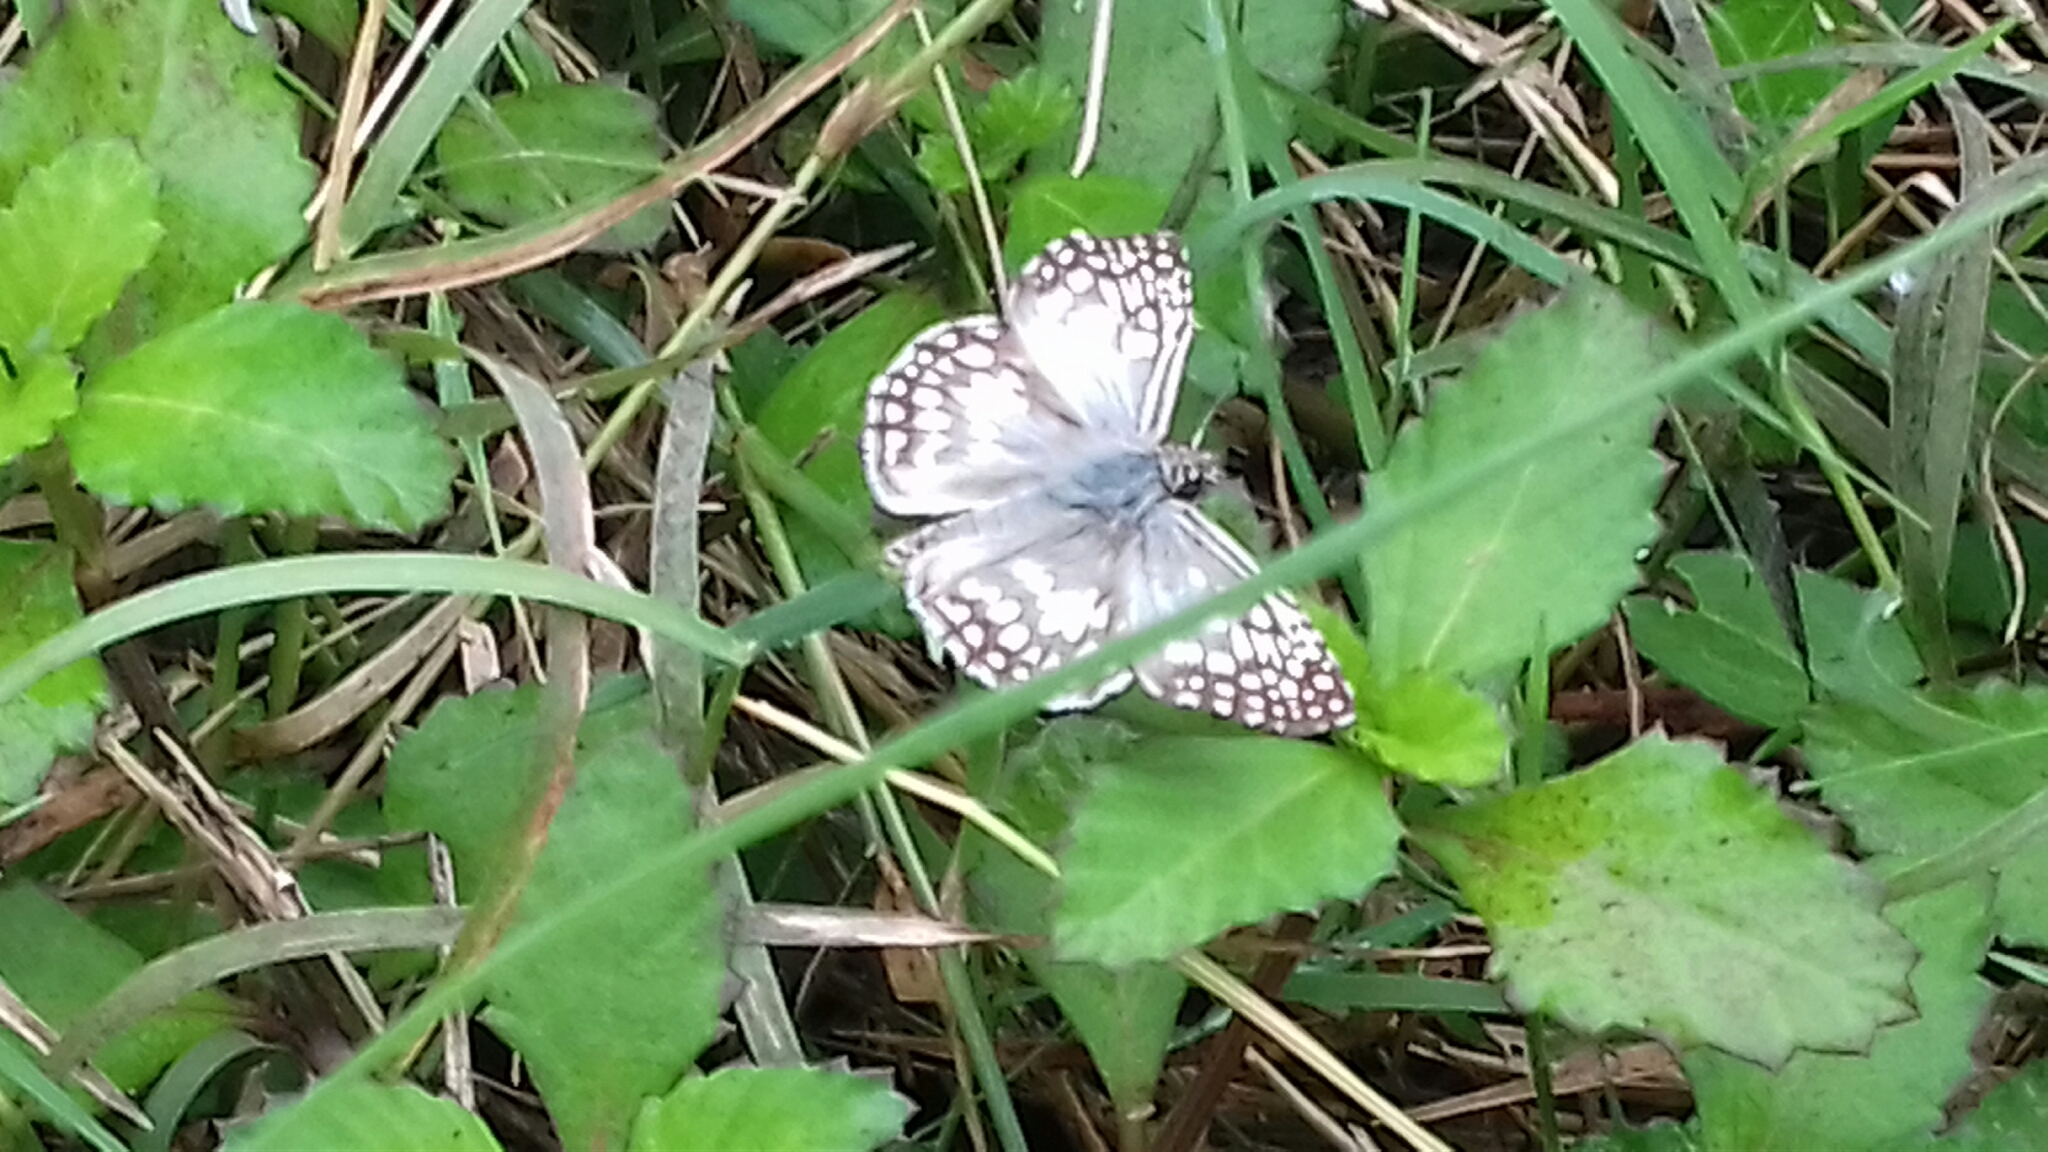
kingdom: Animalia
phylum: Arthropoda
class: Insecta
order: Lepidoptera
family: Hesperiidae
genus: Pyrgus
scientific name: Pyrgus oileus
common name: Tropical checkered-skipper
